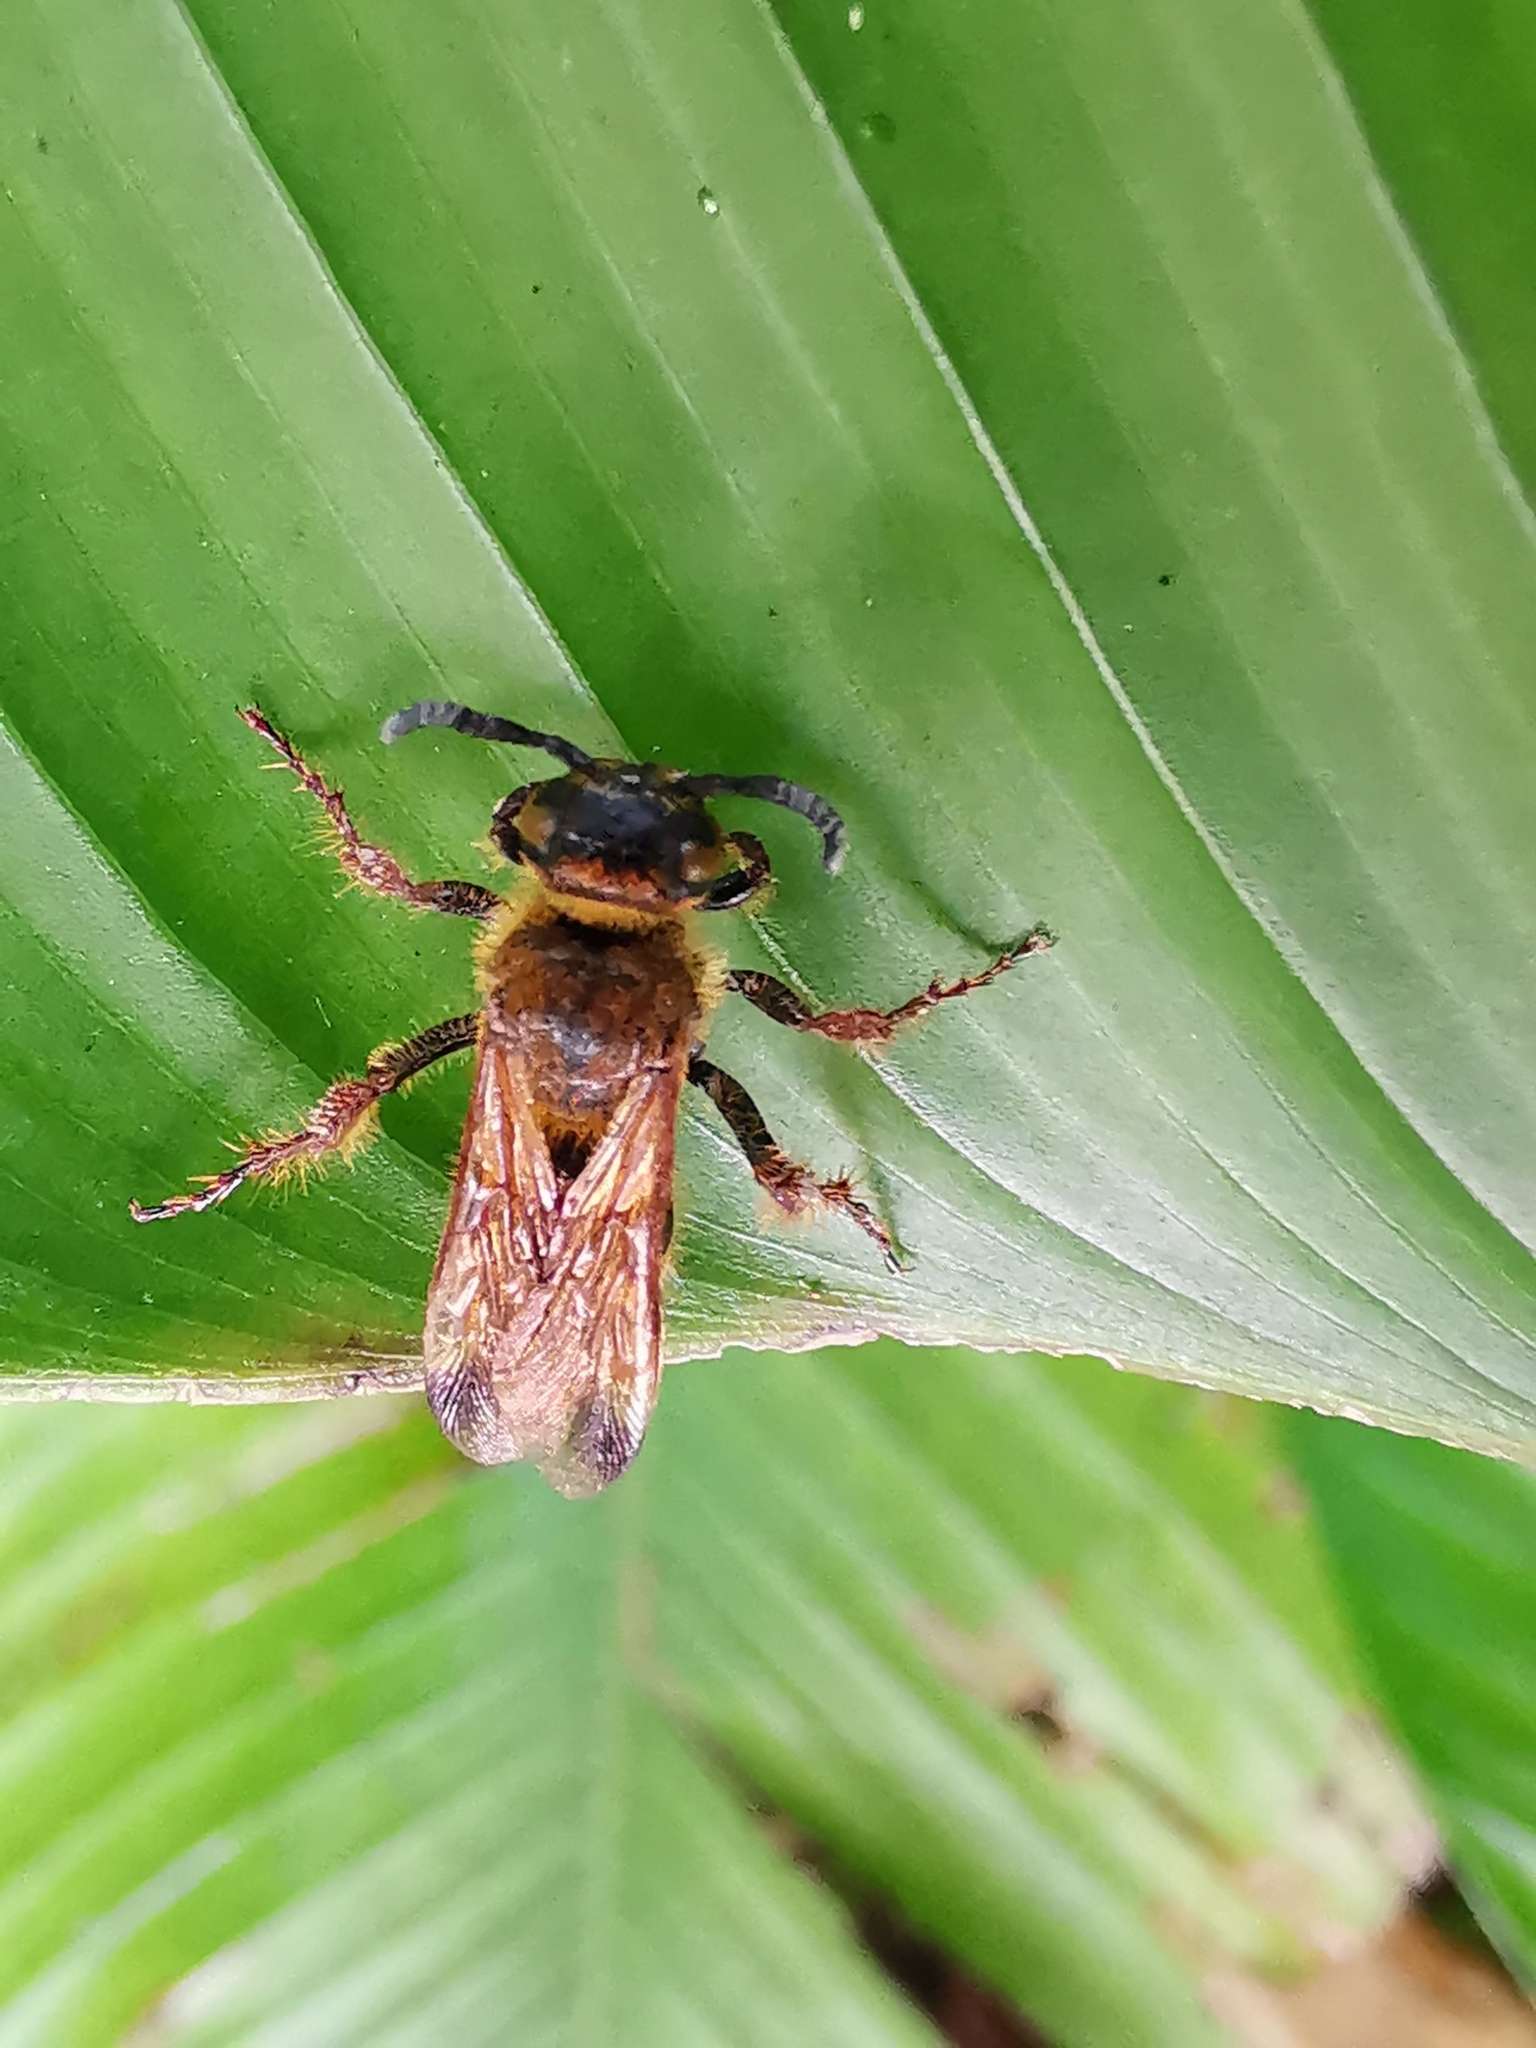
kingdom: Animalia
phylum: Arthropoda
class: Insecta
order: Hymenoptera
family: Scoliidae
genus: Campsomeris
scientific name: Campsomeris phalerata
